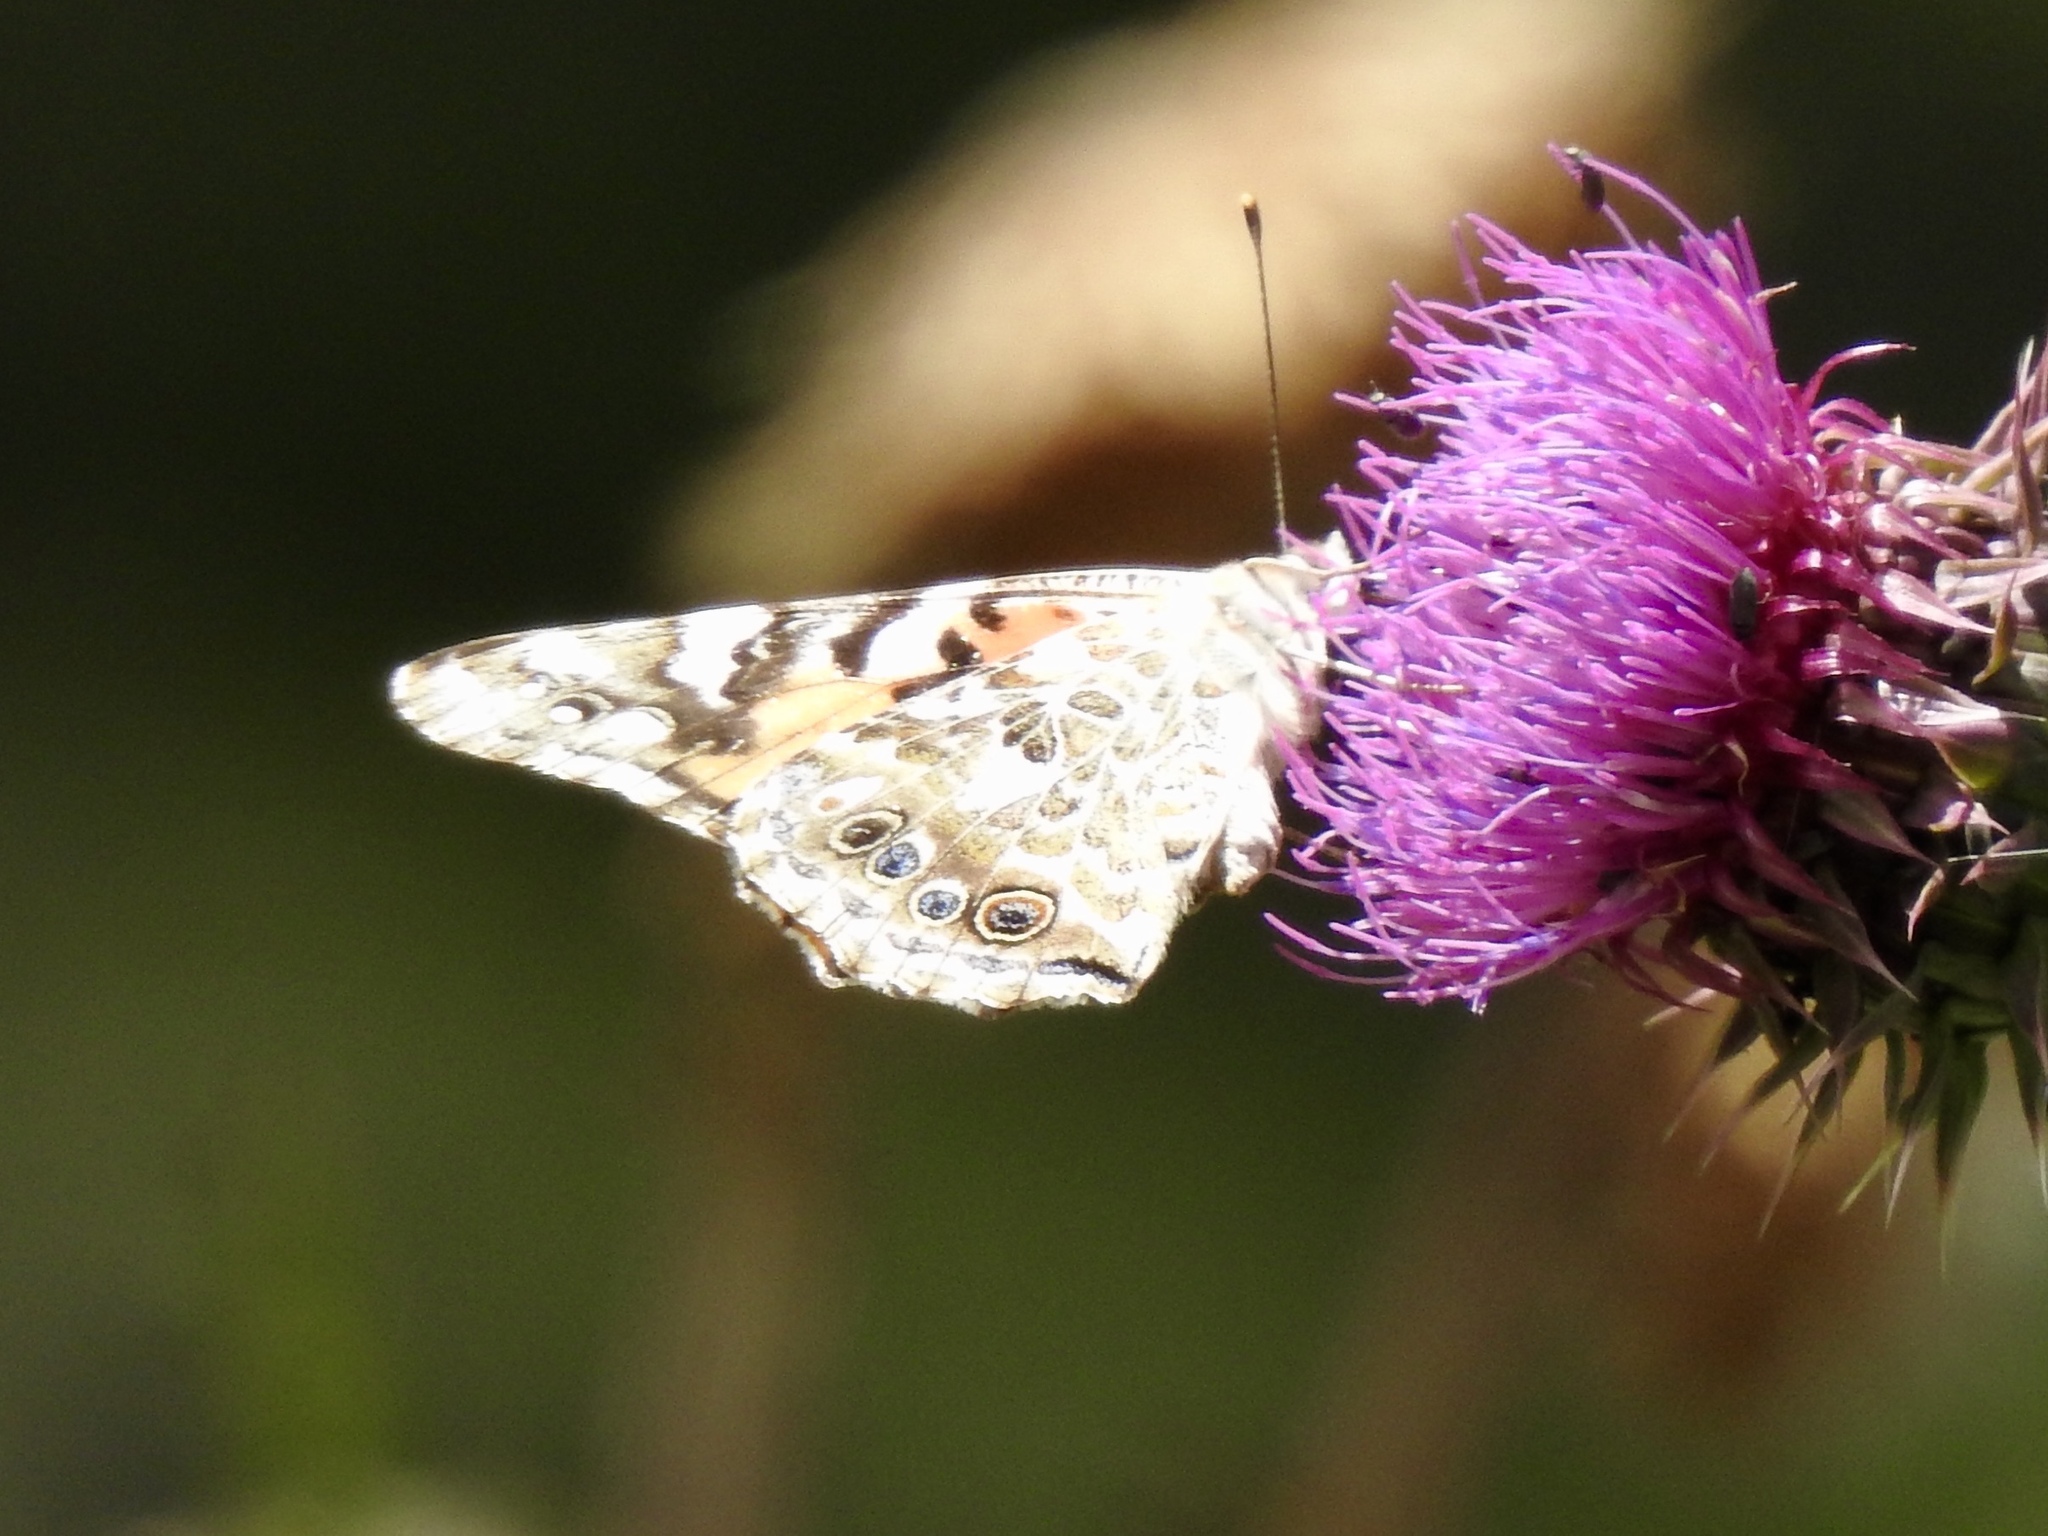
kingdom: Animalia
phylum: Arthropoda
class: Insecta
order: Lepidoptera
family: Nymphalidae
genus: Vanessa
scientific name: Vanessa cardui
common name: Painted lady
